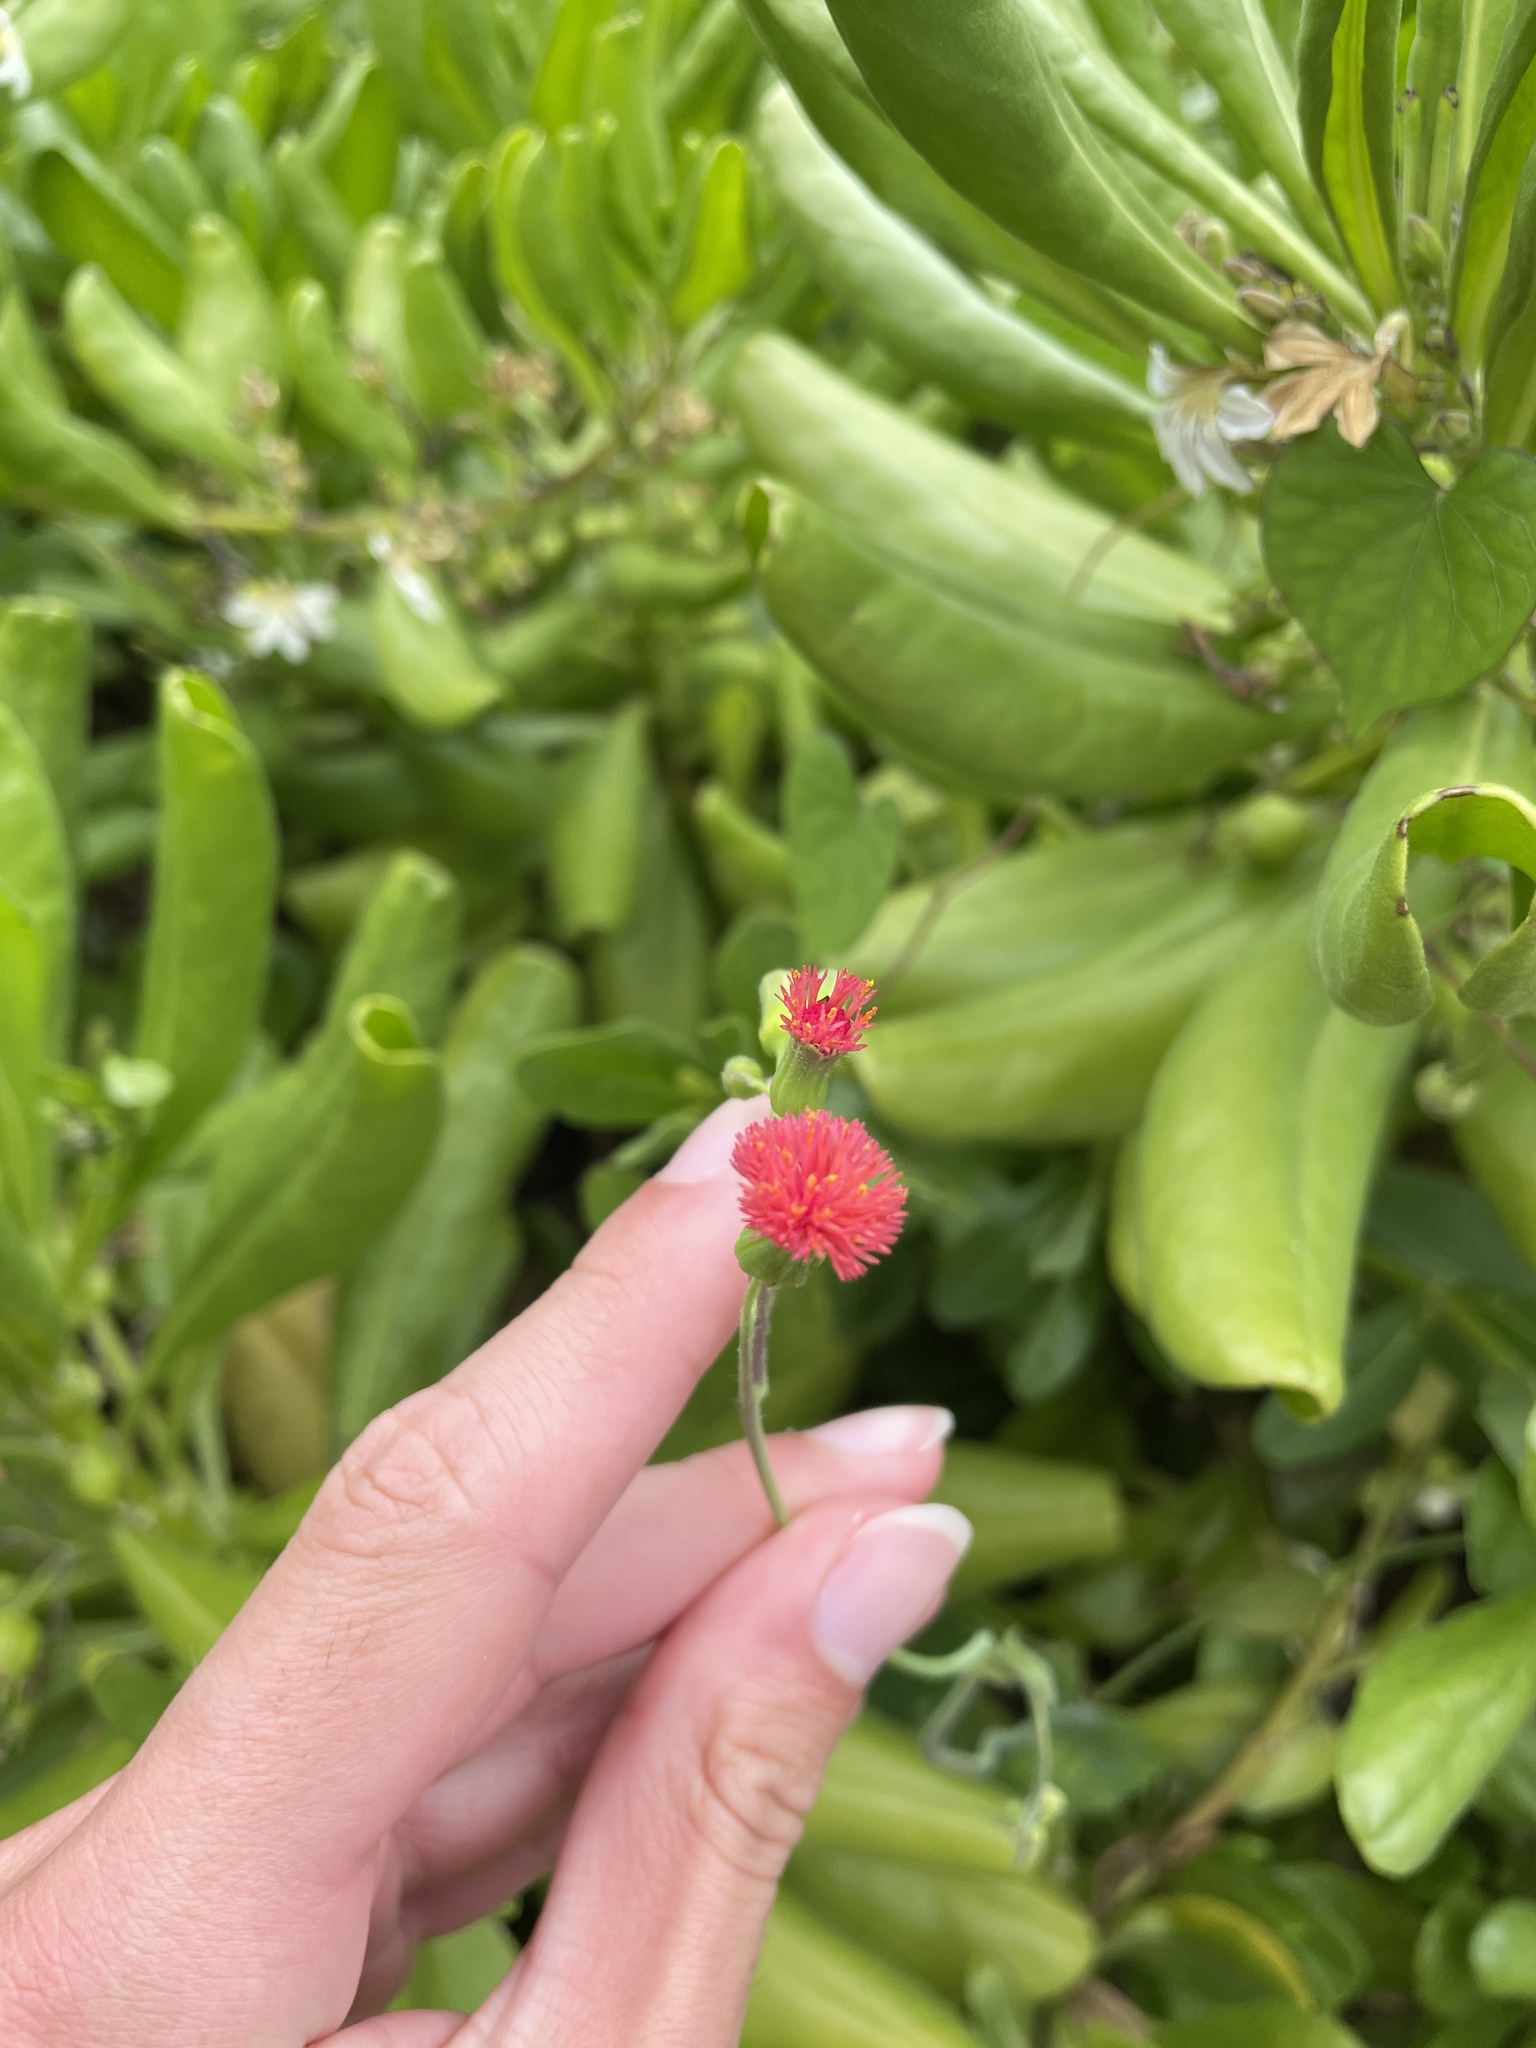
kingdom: Plantae
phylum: Tracheophyta
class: Magnoliopsida
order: Asterales
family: Asteraceae
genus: Emilia
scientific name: Emilia fosbergii
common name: Florida tasselflower
